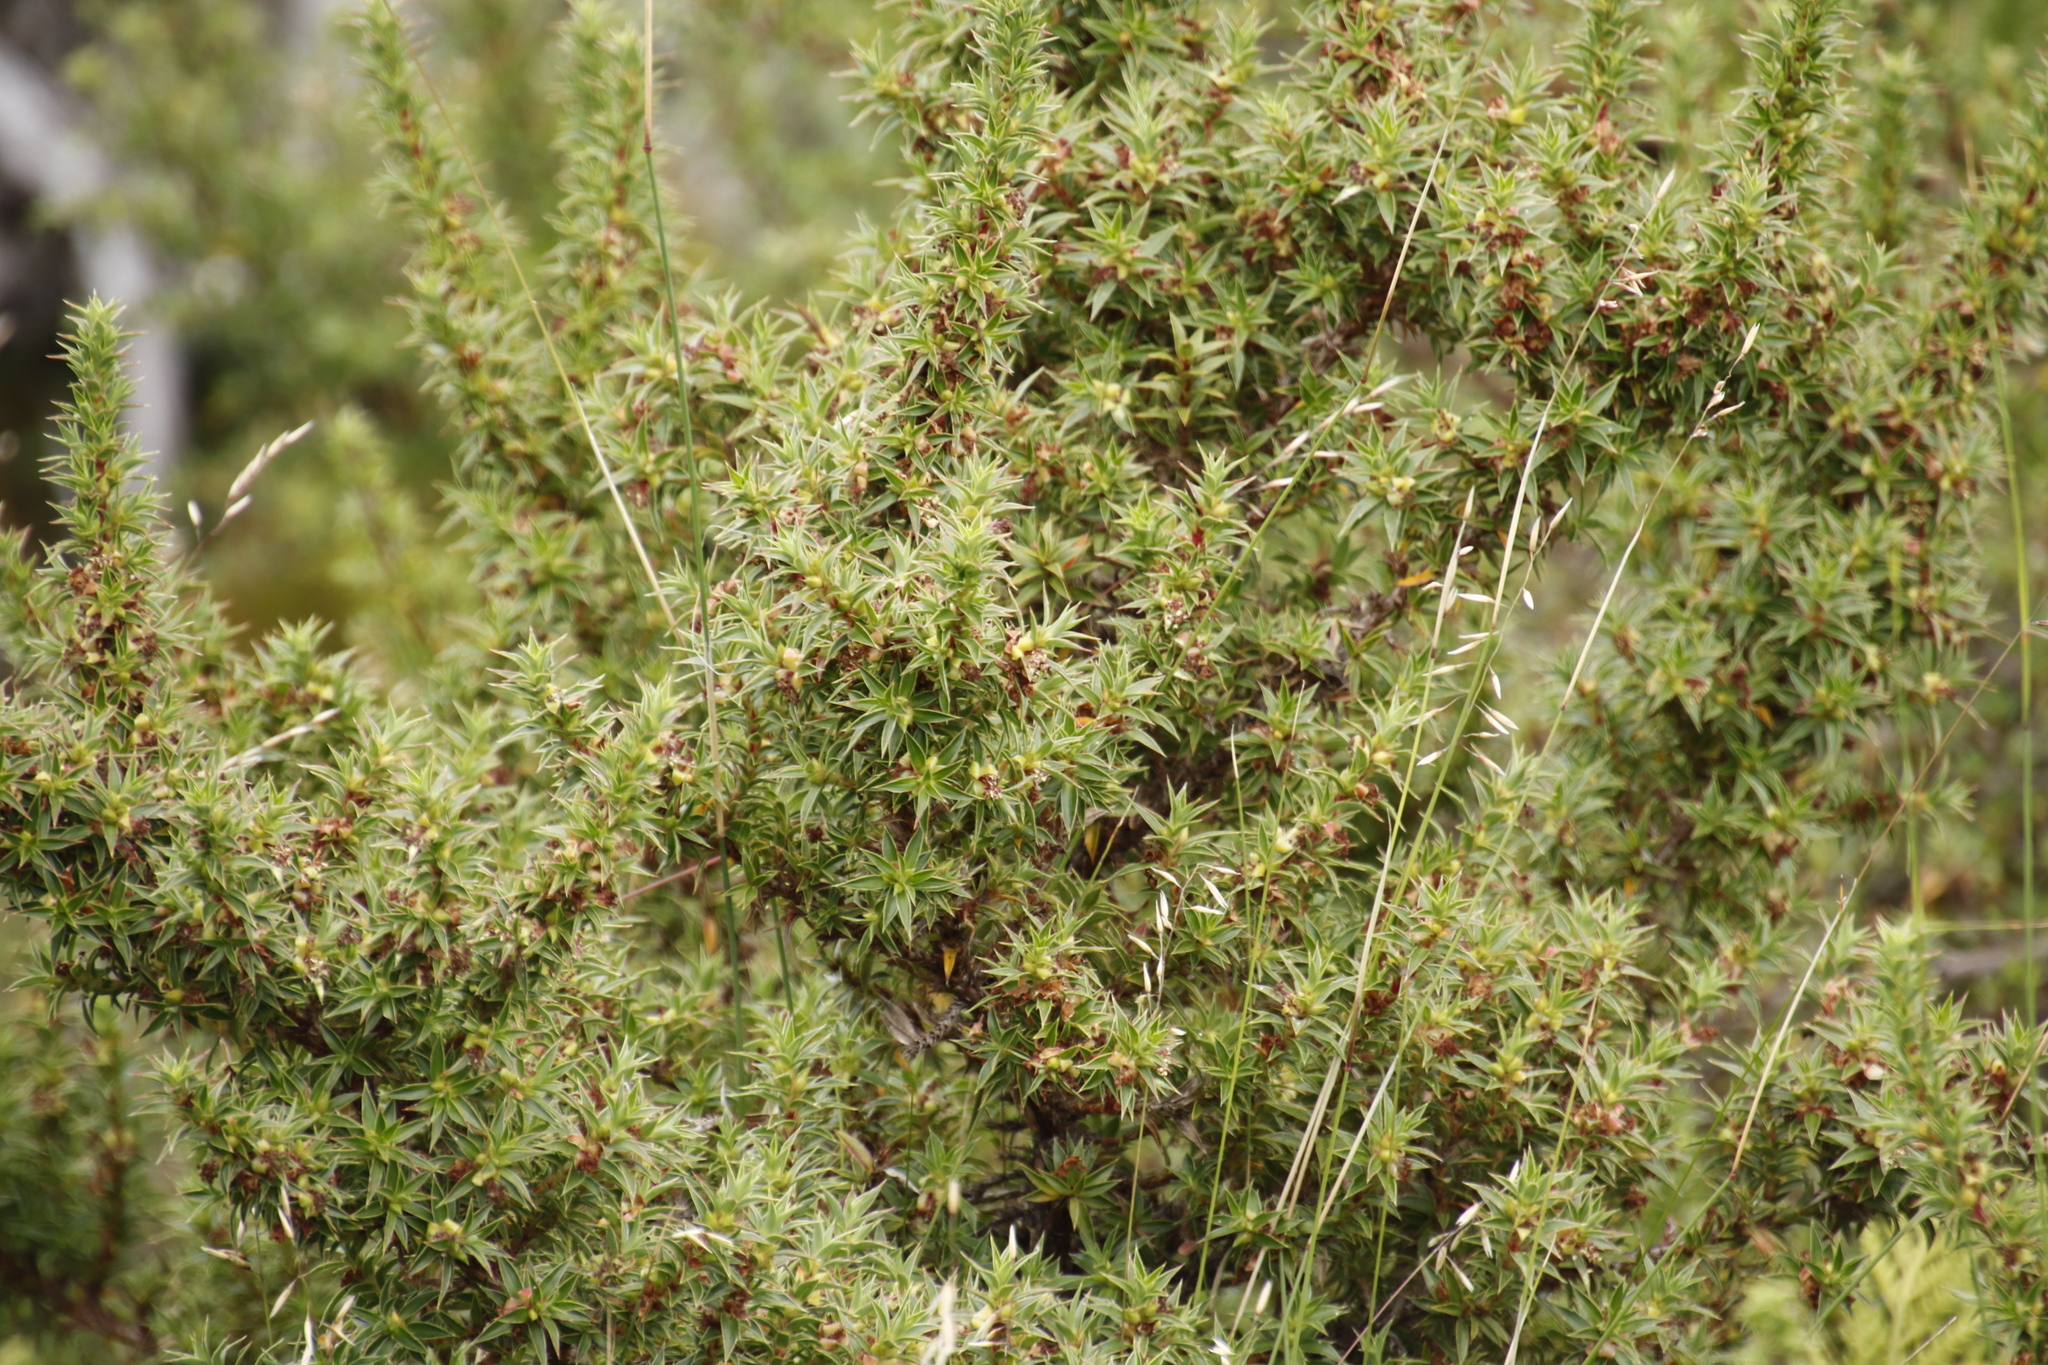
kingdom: Plantae
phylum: Tracheophyta
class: Magnoliopsida
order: Rosales
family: Rosaceae
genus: Cliffortia
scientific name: Cliffortia theodori-friesii
